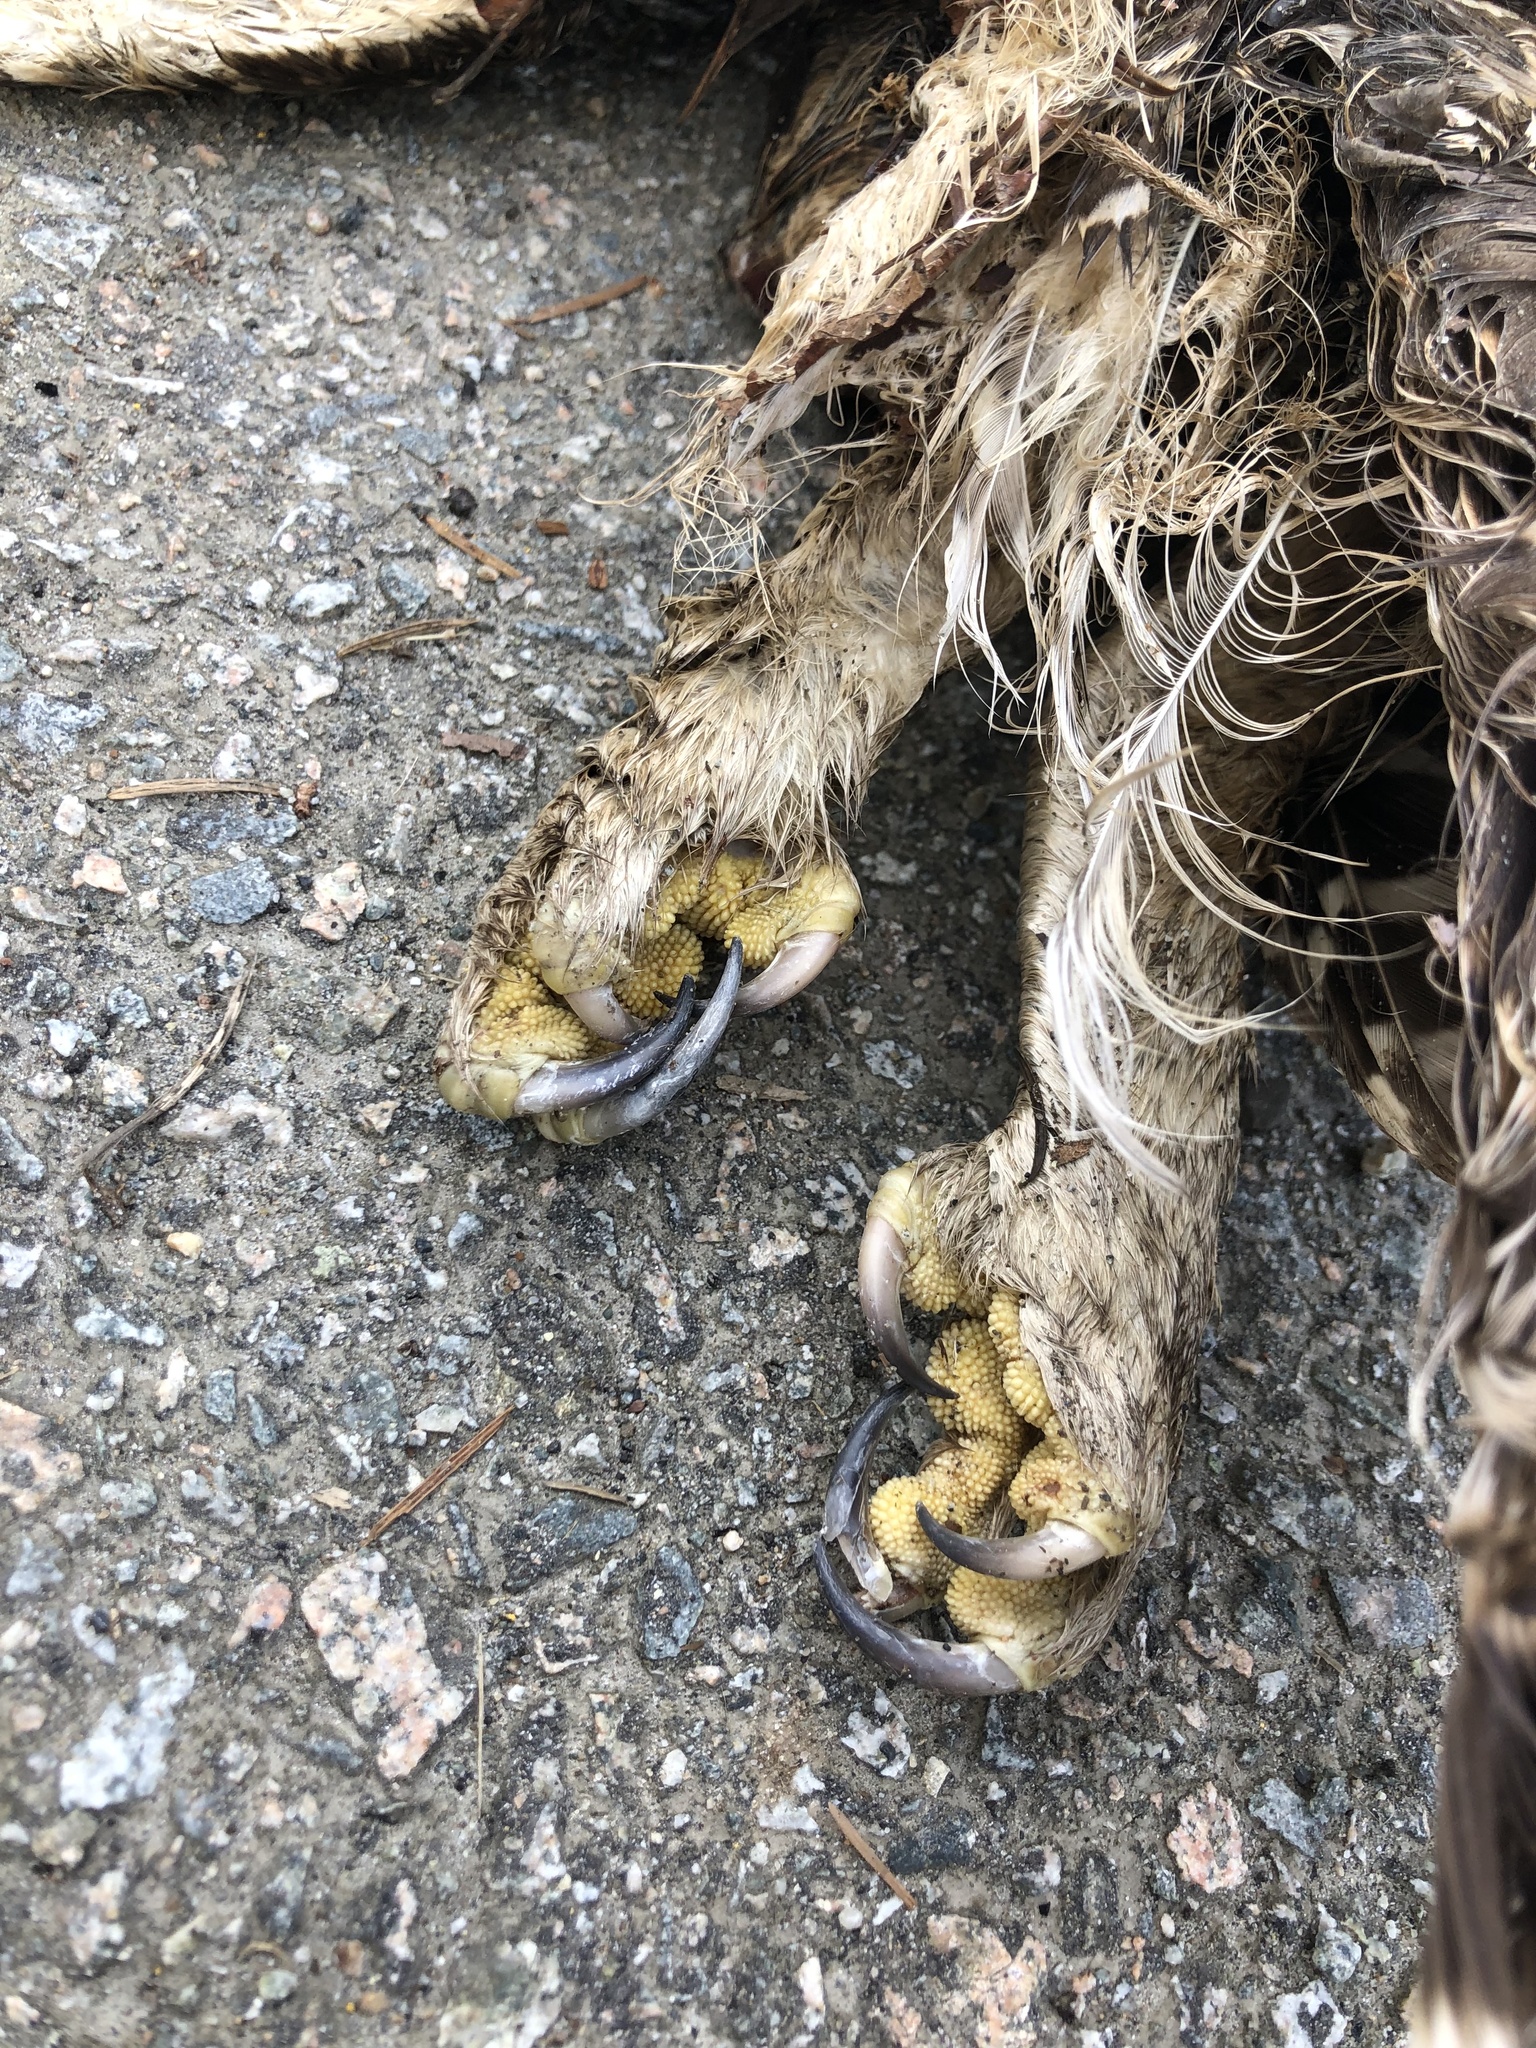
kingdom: Animalia
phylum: Chordata
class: Aves
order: Strigiformes
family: Strigidae
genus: Strix
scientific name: Strix varia
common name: Barred owl
